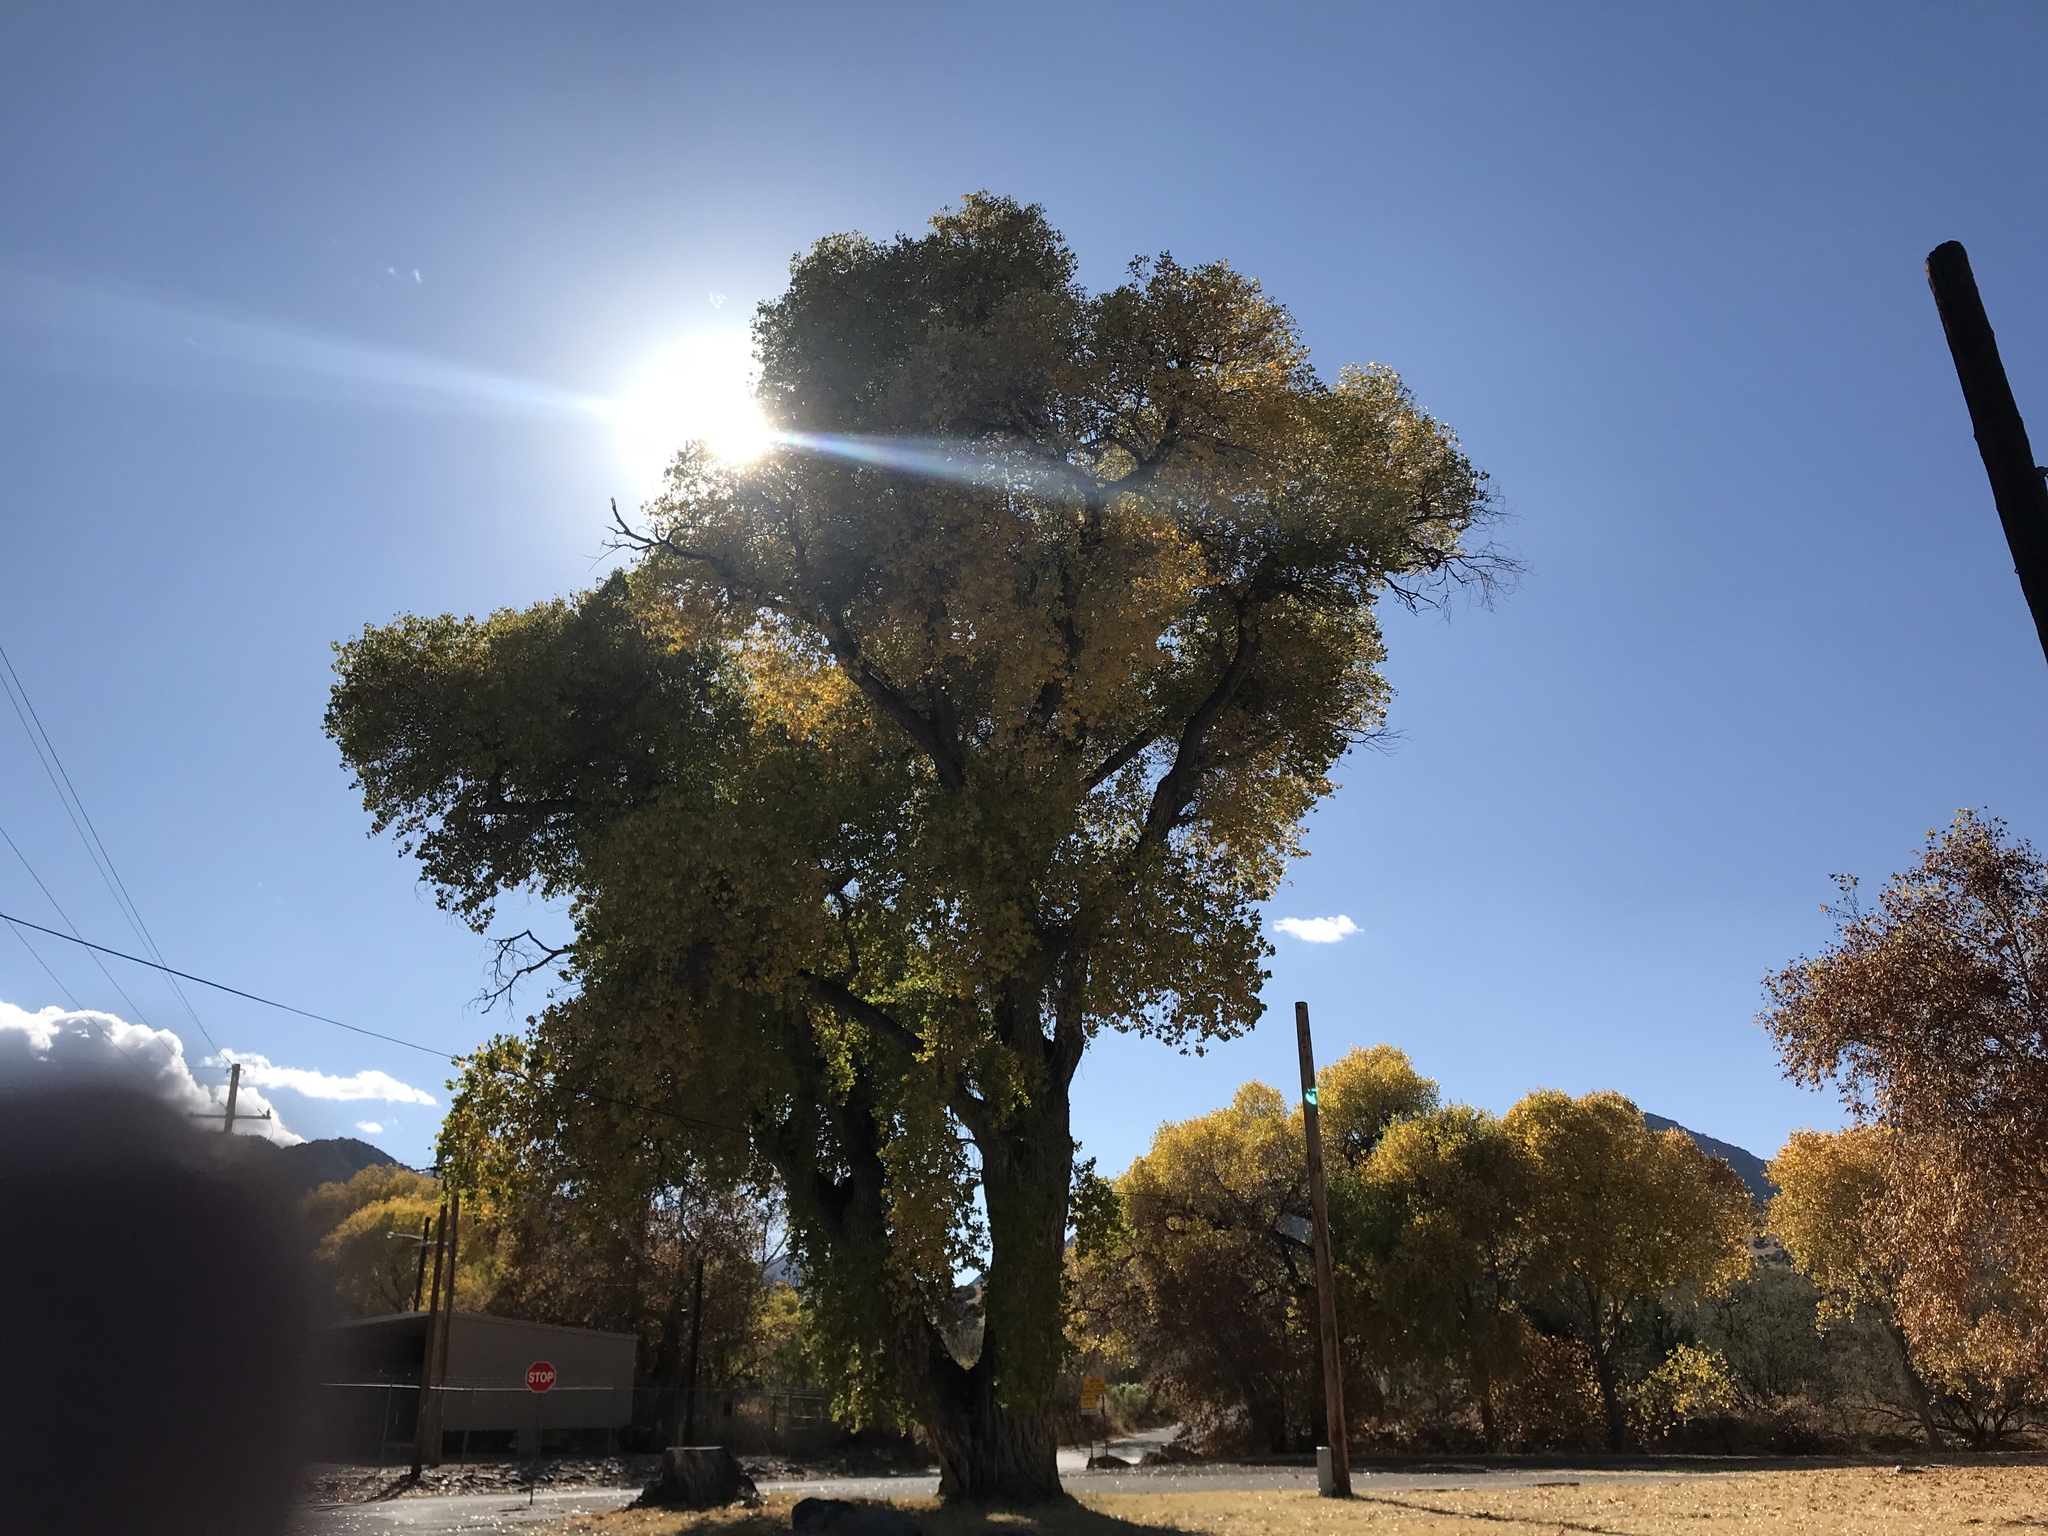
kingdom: Plantae
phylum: Tracheophyta
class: Magnoliopsida
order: Malpighiales
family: Salicaceae
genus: Populus
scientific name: Populus fremontii
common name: Fremont's cottonwood
